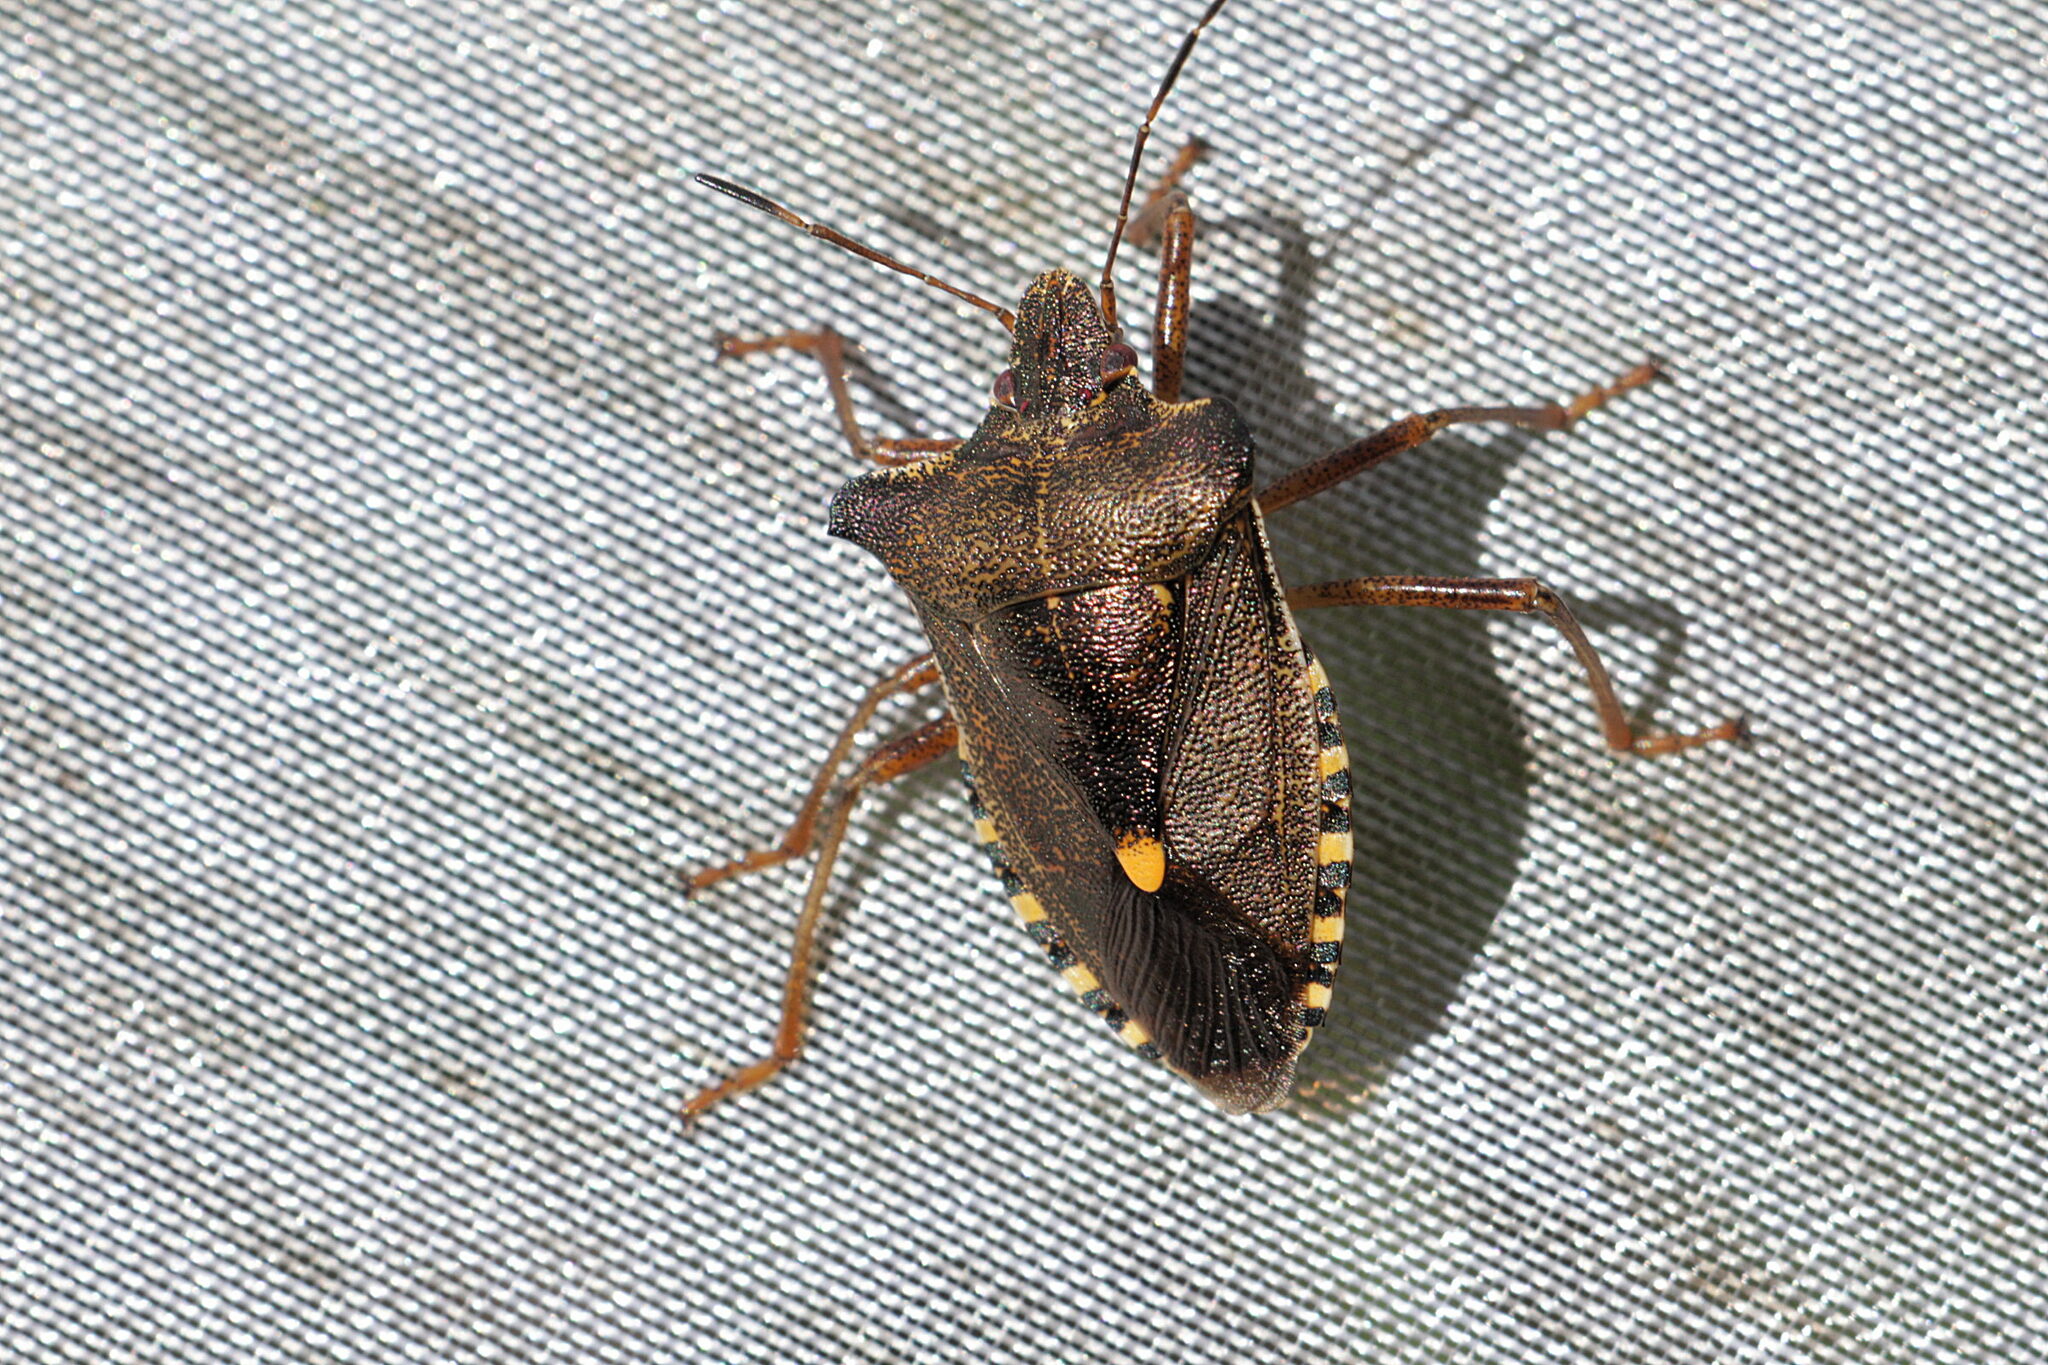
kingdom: Animalia
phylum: Arthropoda
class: Insecta
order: Hemiptera
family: Pentatomidae
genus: Pentatoma
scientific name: Pentatoma rufipes
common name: Forest bug
